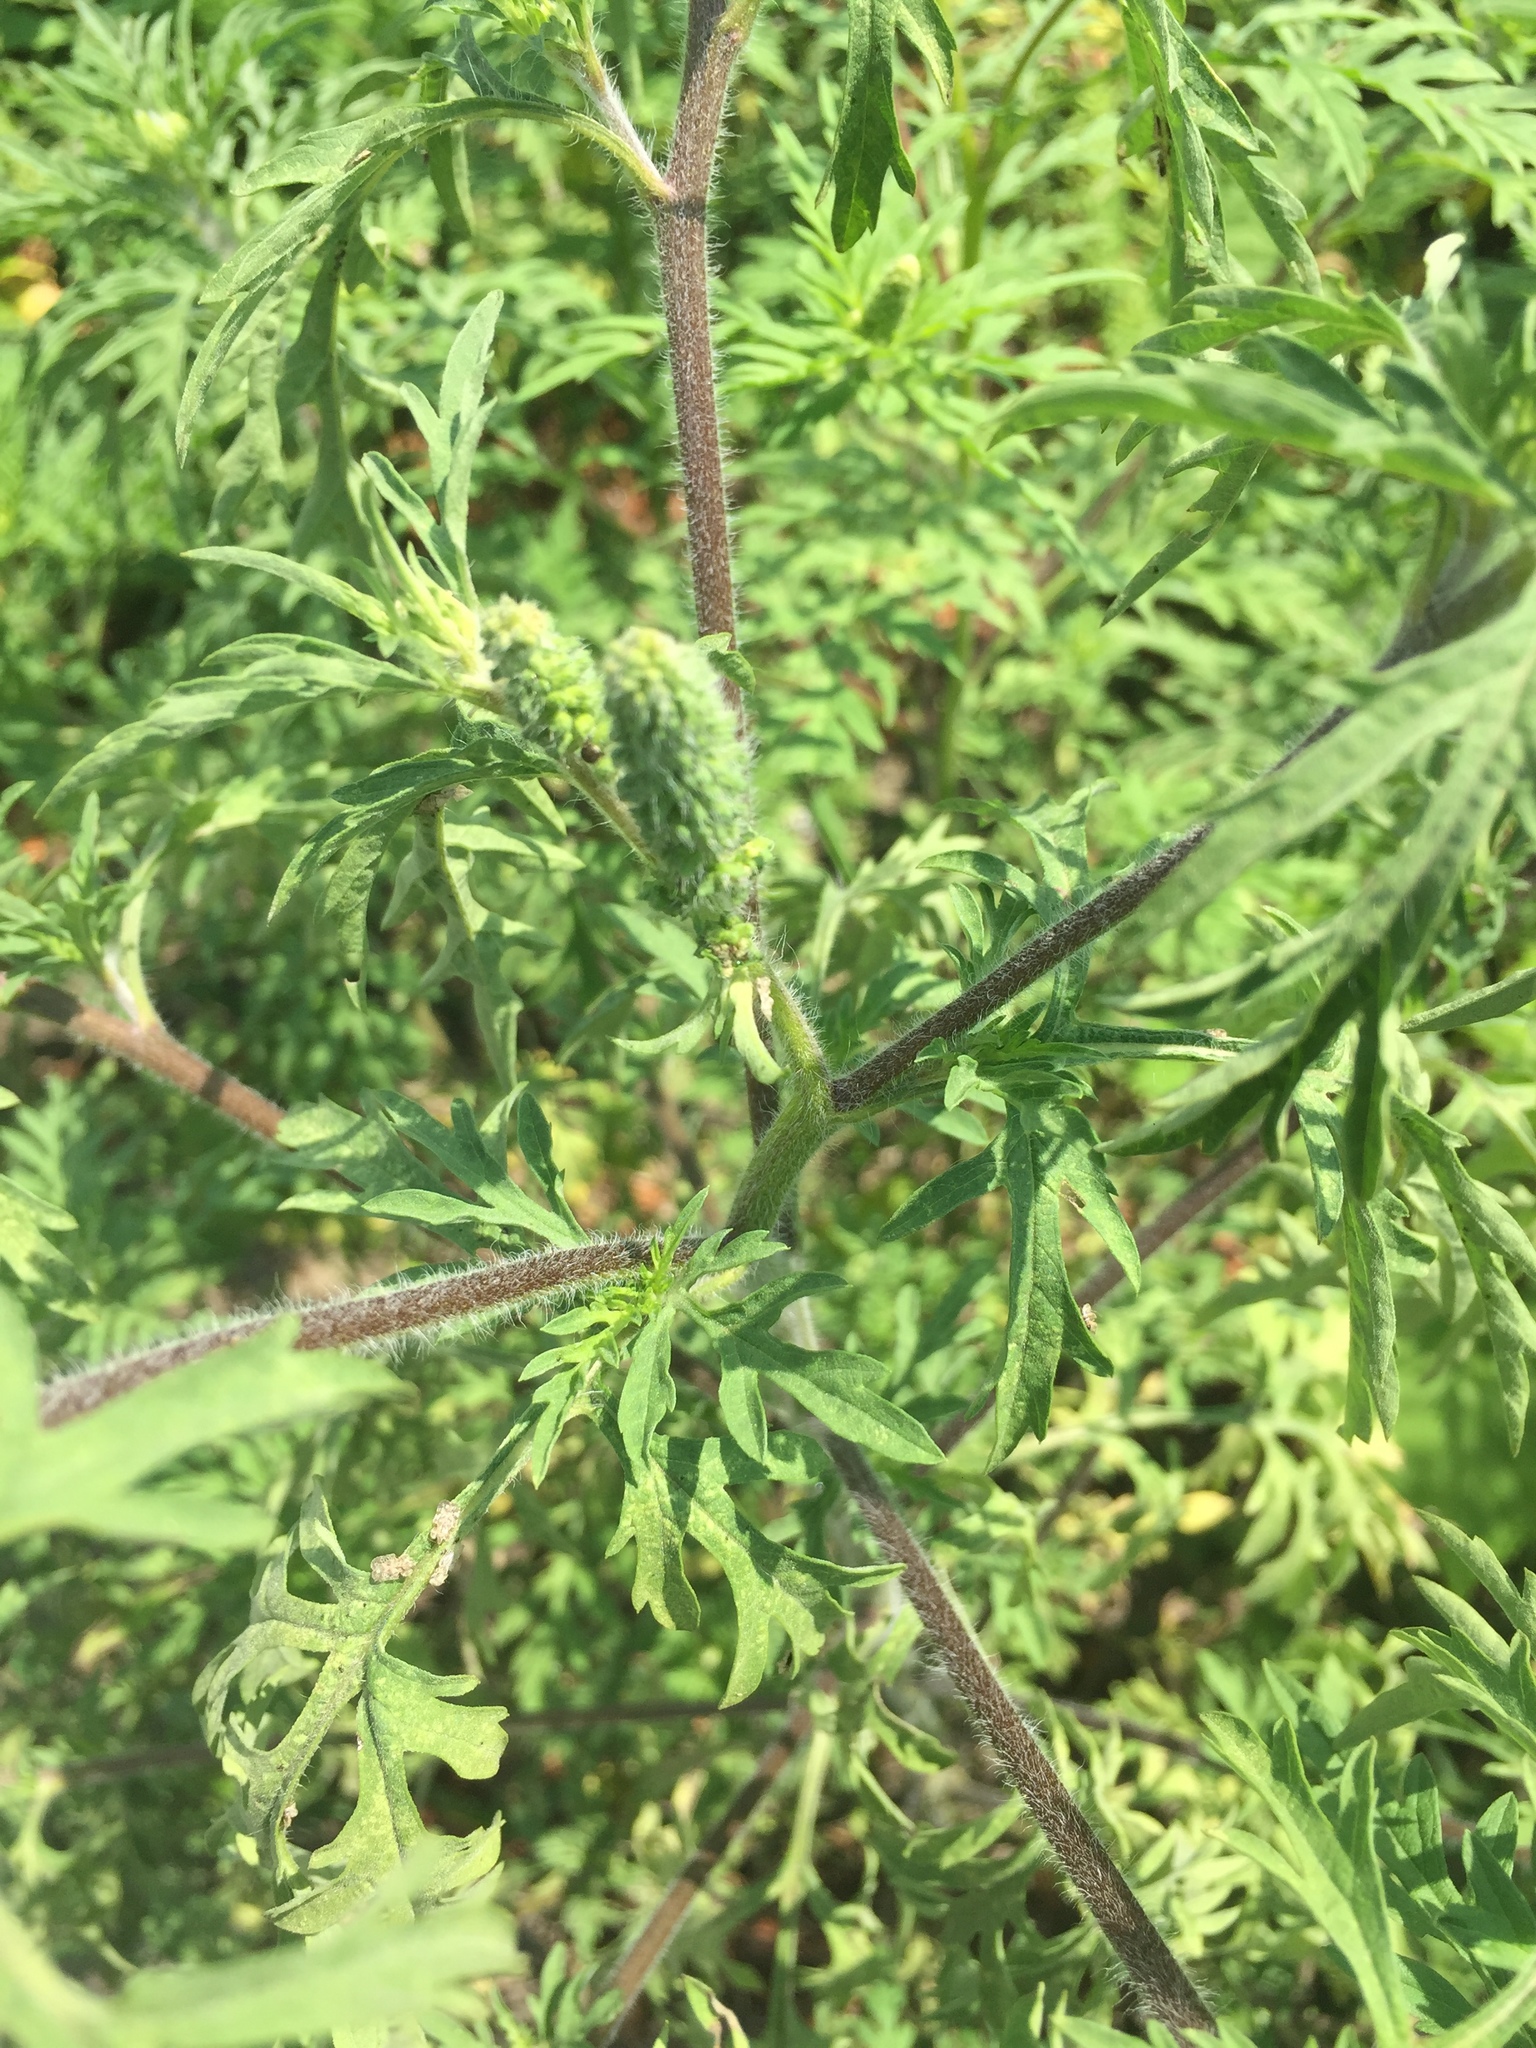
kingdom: Plantae
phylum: Tracheophyta
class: Magnoliopsida
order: Asterales
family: Asteraceae
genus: Ambrosia
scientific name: Ambrosia artemisiifolia
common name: Annual ragweed
